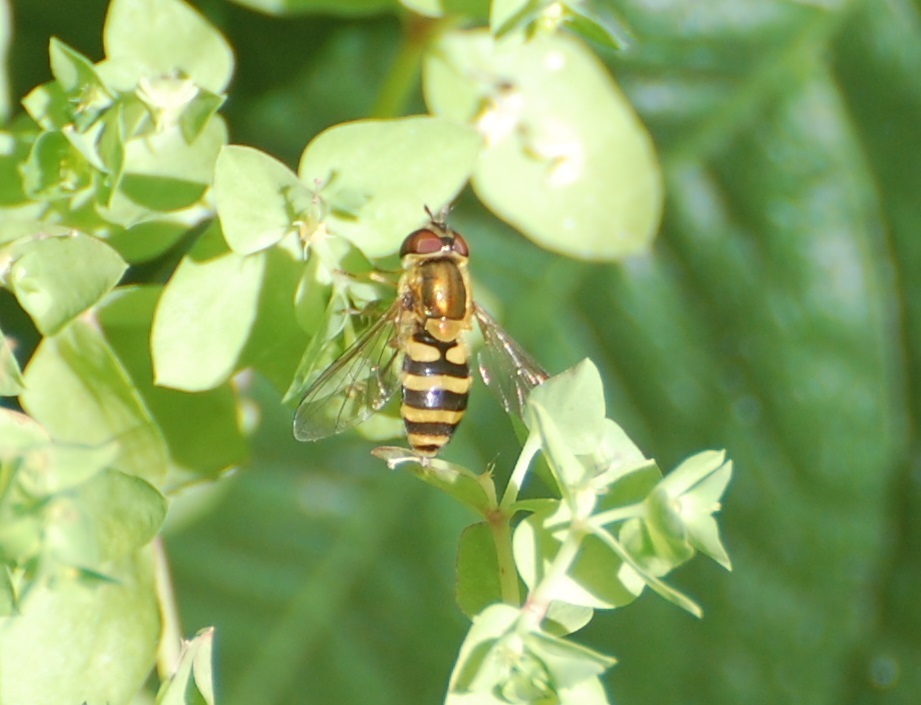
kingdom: Animalia
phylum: Arthropoda
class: Insecta
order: Diptera
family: Syrphidae
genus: Syrphus
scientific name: Syrphus
